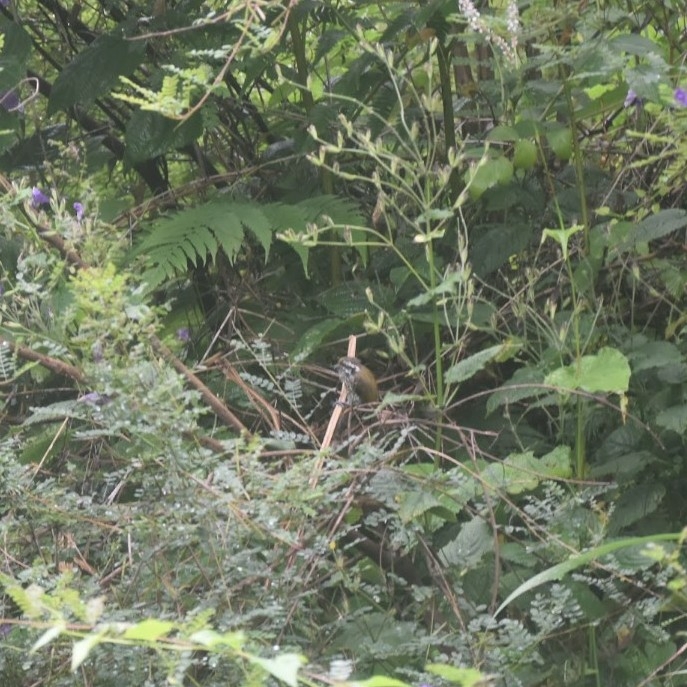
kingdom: Animalia
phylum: Chordata
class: Aves
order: Piciformes
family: Picidae
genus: Picumnus
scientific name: Picumnus innominatus
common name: Speckled piculet
